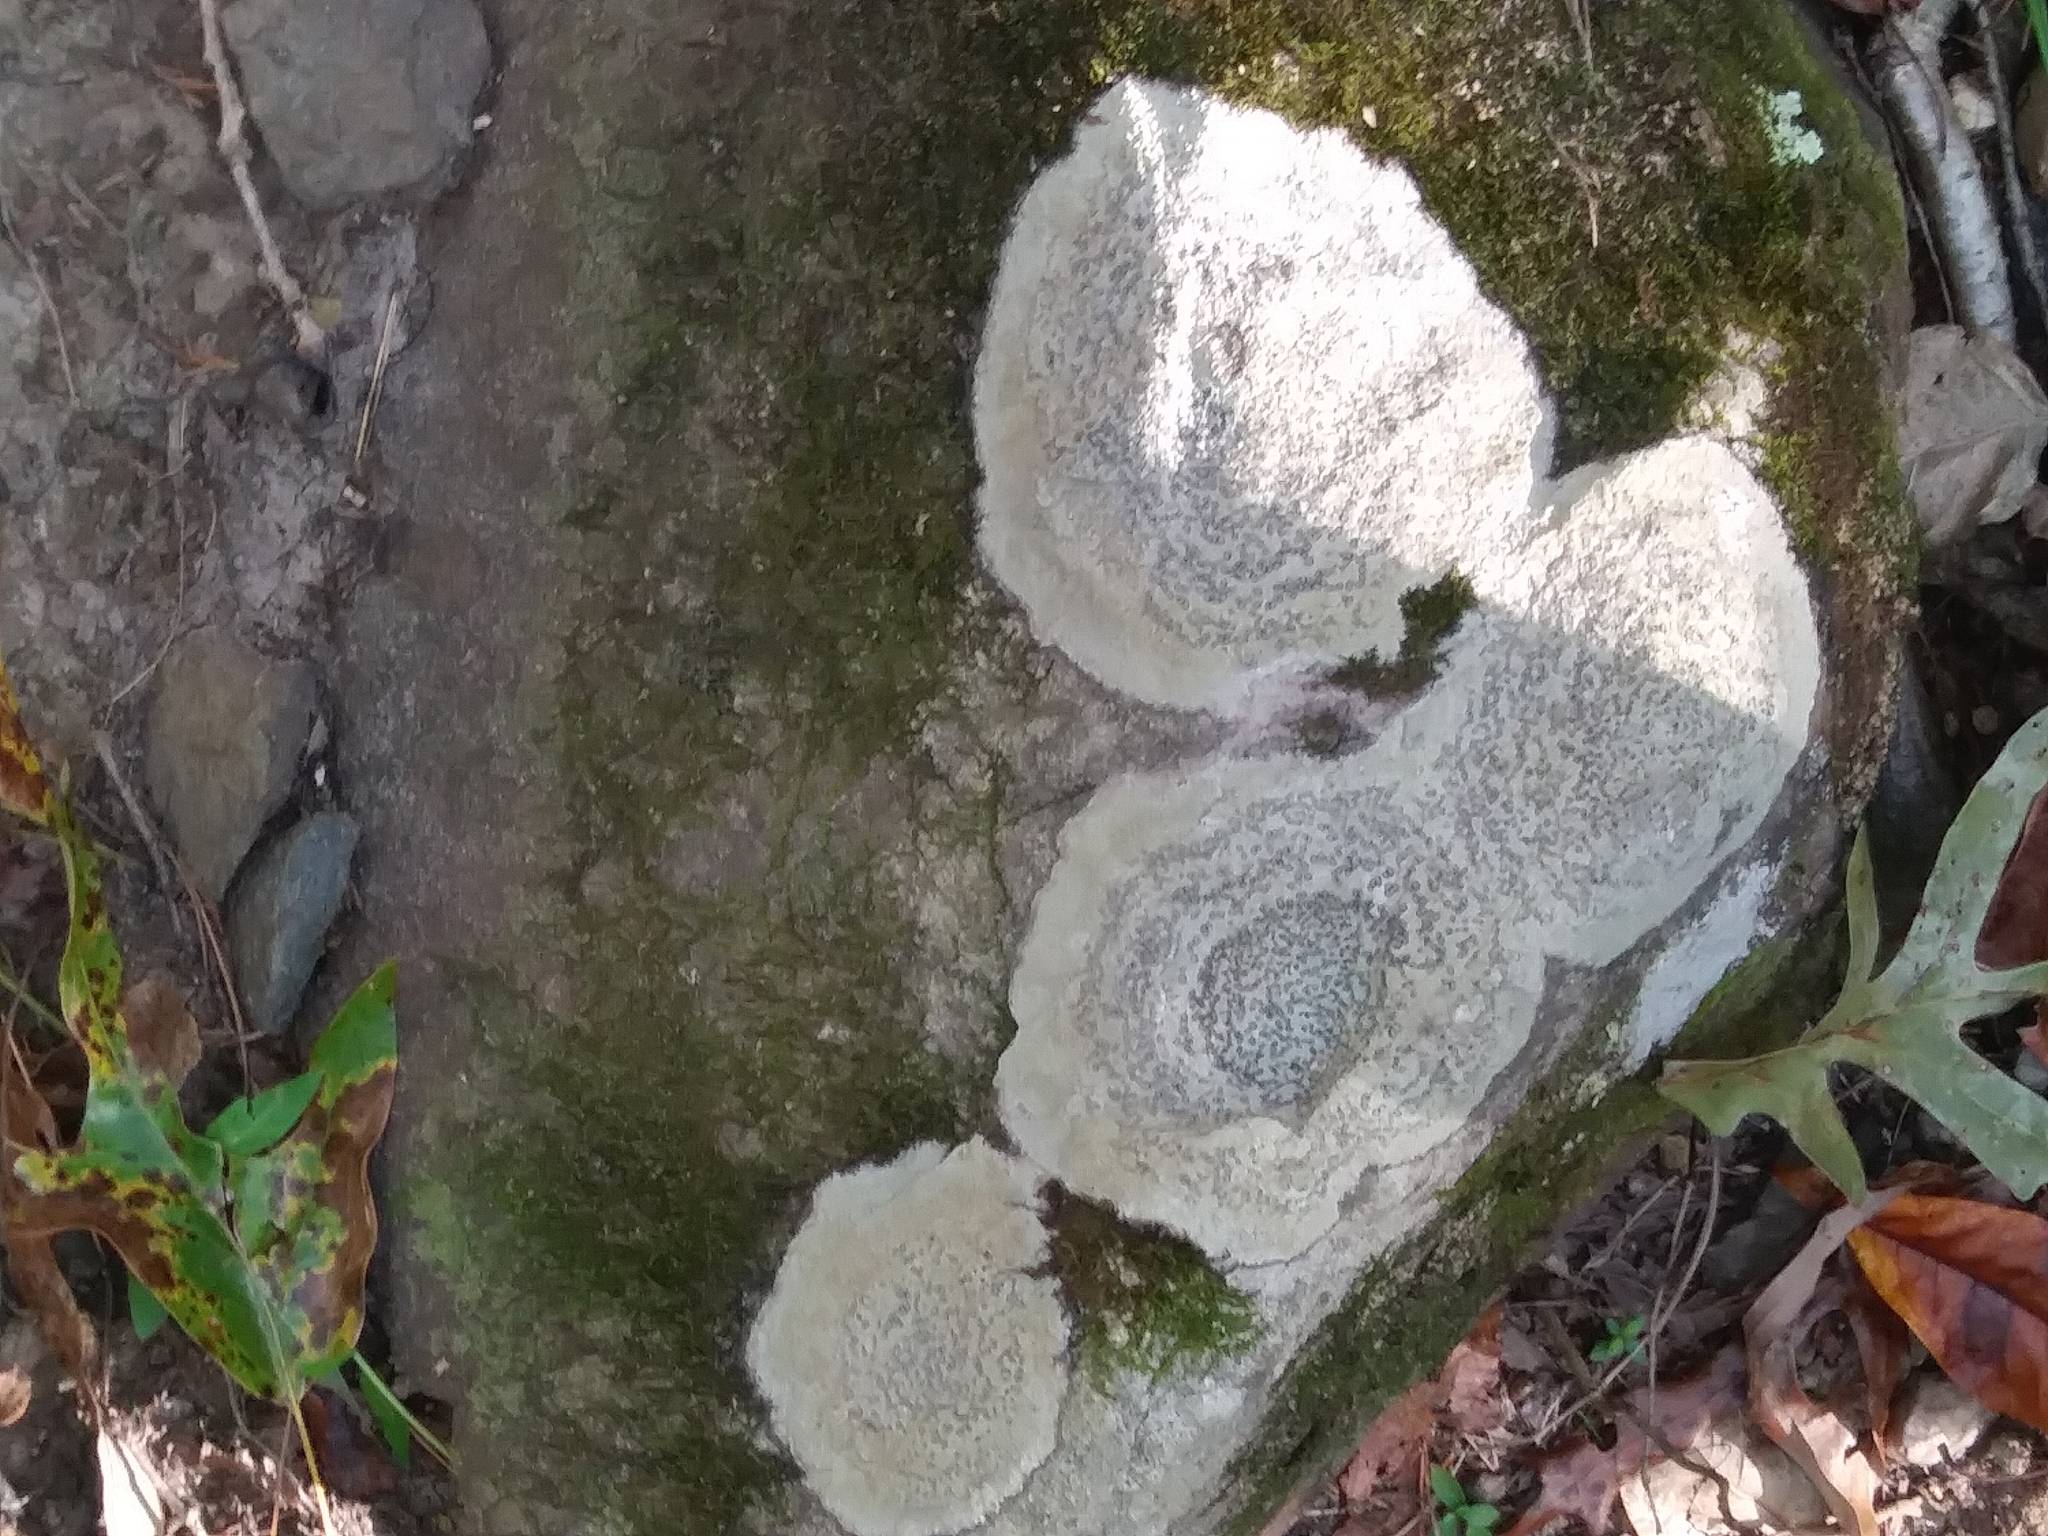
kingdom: Fungi
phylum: Ascomycota
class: Lecanoromycetes
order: Lecideales
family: Lecideaceae
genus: Porpidia
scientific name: Porpidia albocaerulescens
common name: Smokey-eyed boulder lichen
